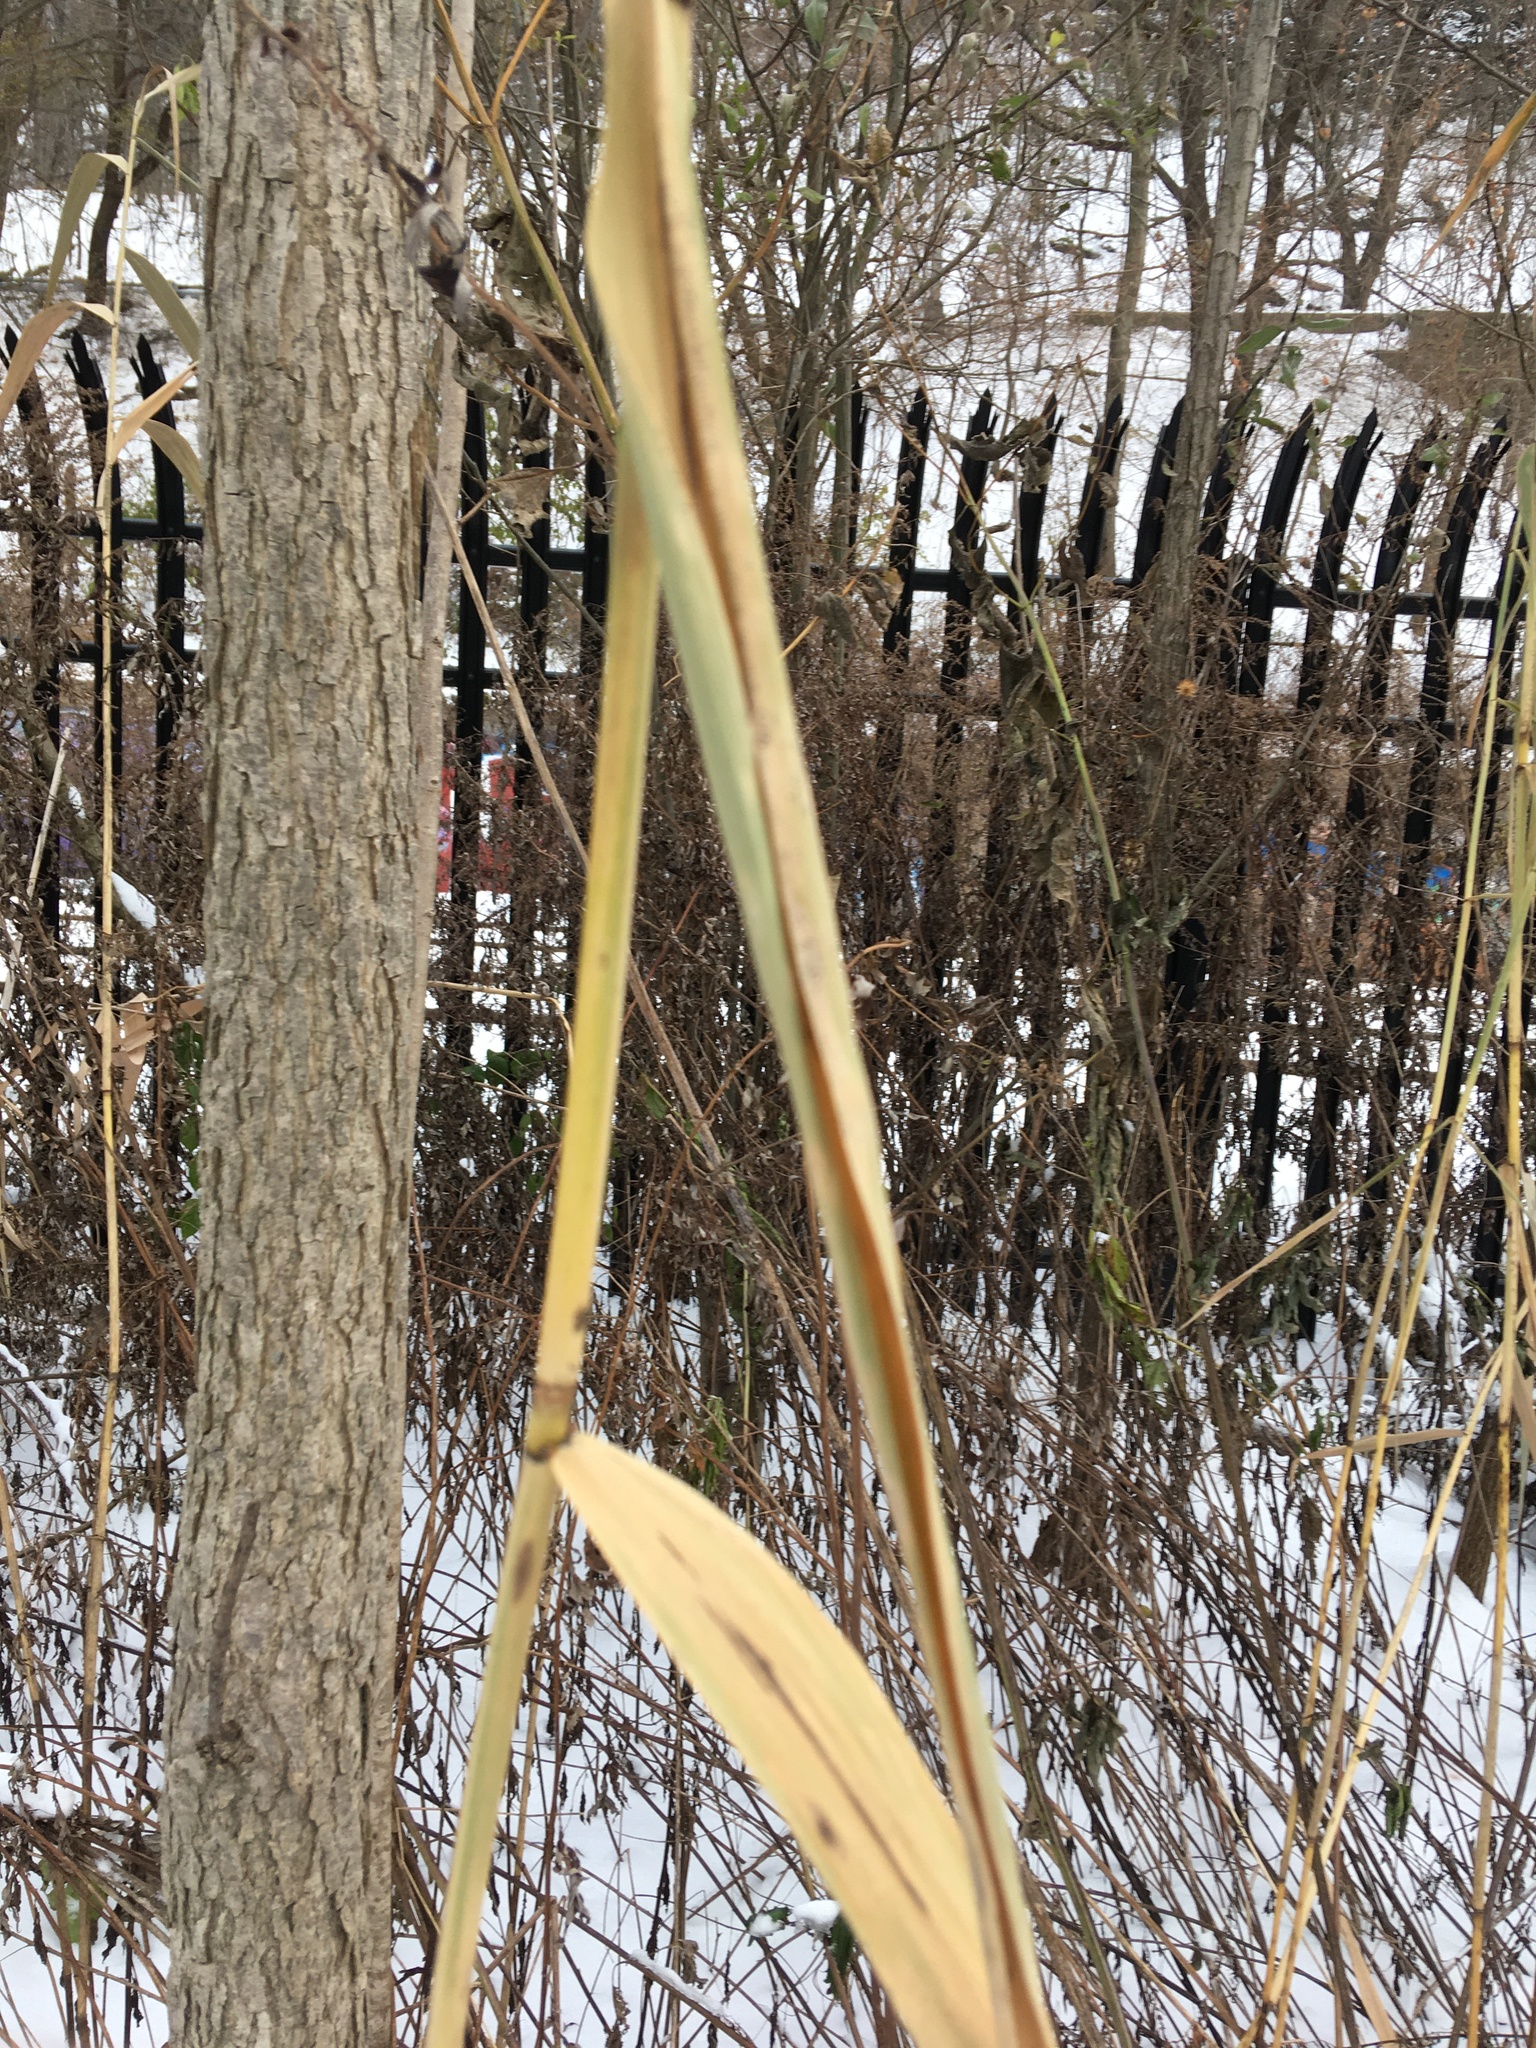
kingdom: Plantae
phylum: Tracheophyta
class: Liliopsida
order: Poales
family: Poaceae
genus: Phragmites
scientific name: Phragmites australis
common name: Common reed
